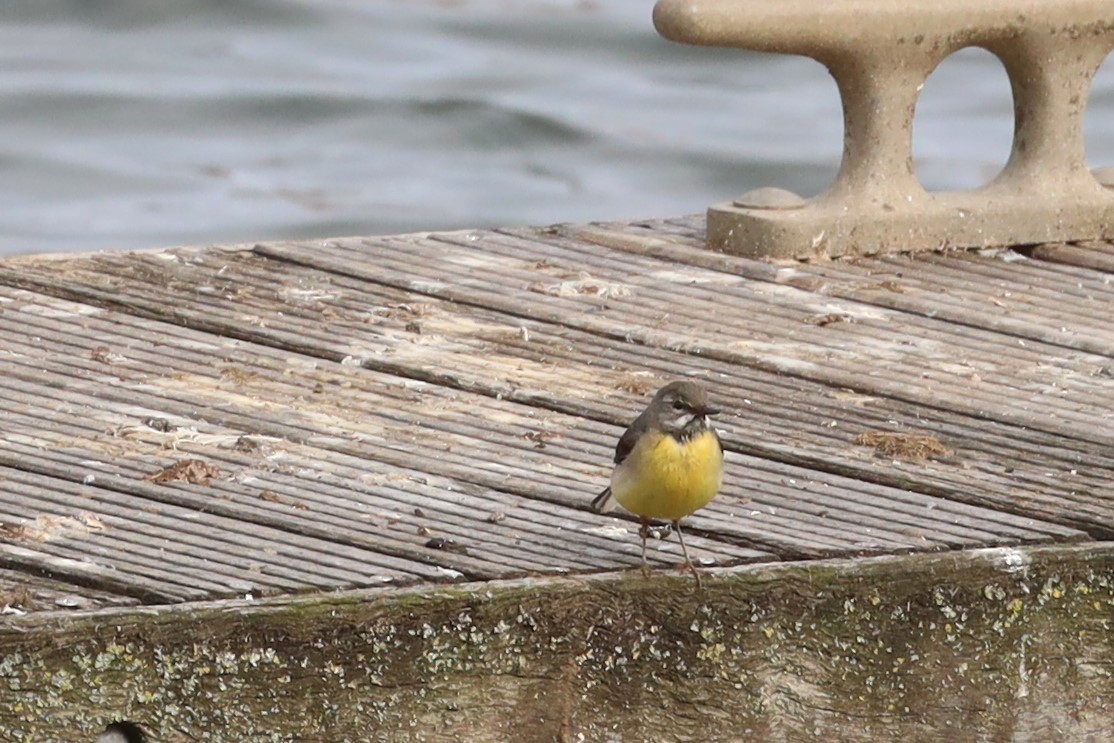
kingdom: Animalia
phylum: Chordata
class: Aves
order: Passeriformes
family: Motacillidae
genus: Motacilla
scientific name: Motacilla cinerea
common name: Grey wagtail
